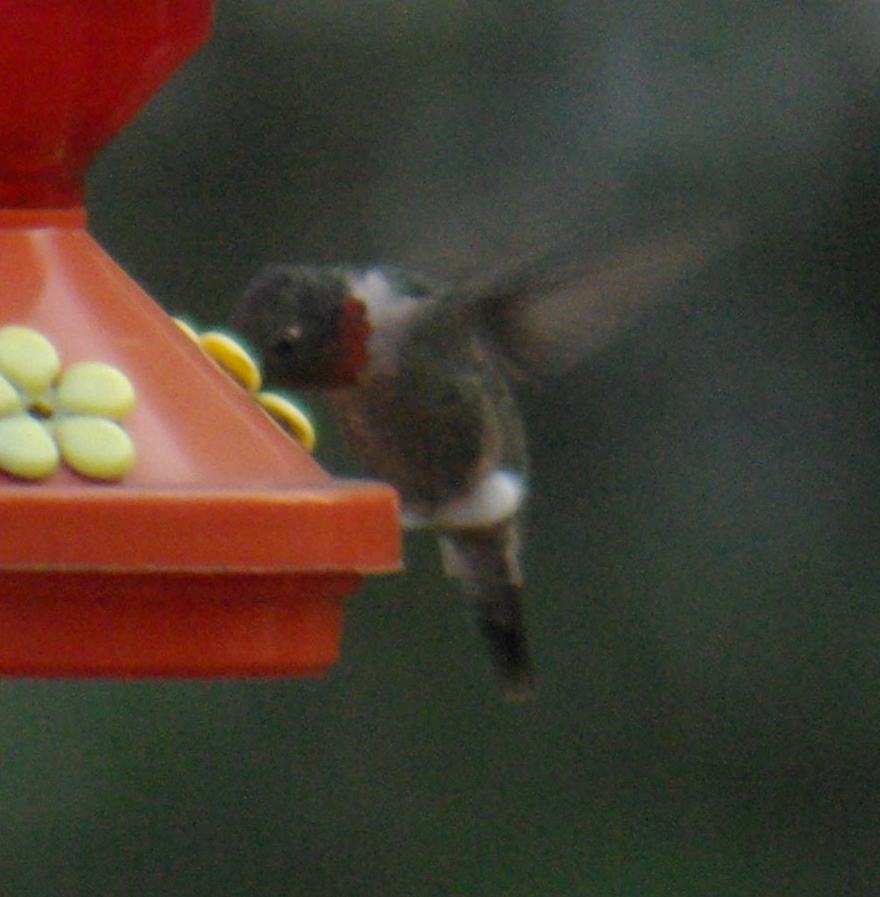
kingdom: Animalia
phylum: Chordata
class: Aves
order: Apodiformes
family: Trochilidae
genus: Archilochus
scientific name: Archilochus colubris
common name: Ruby-throated hummingbird
